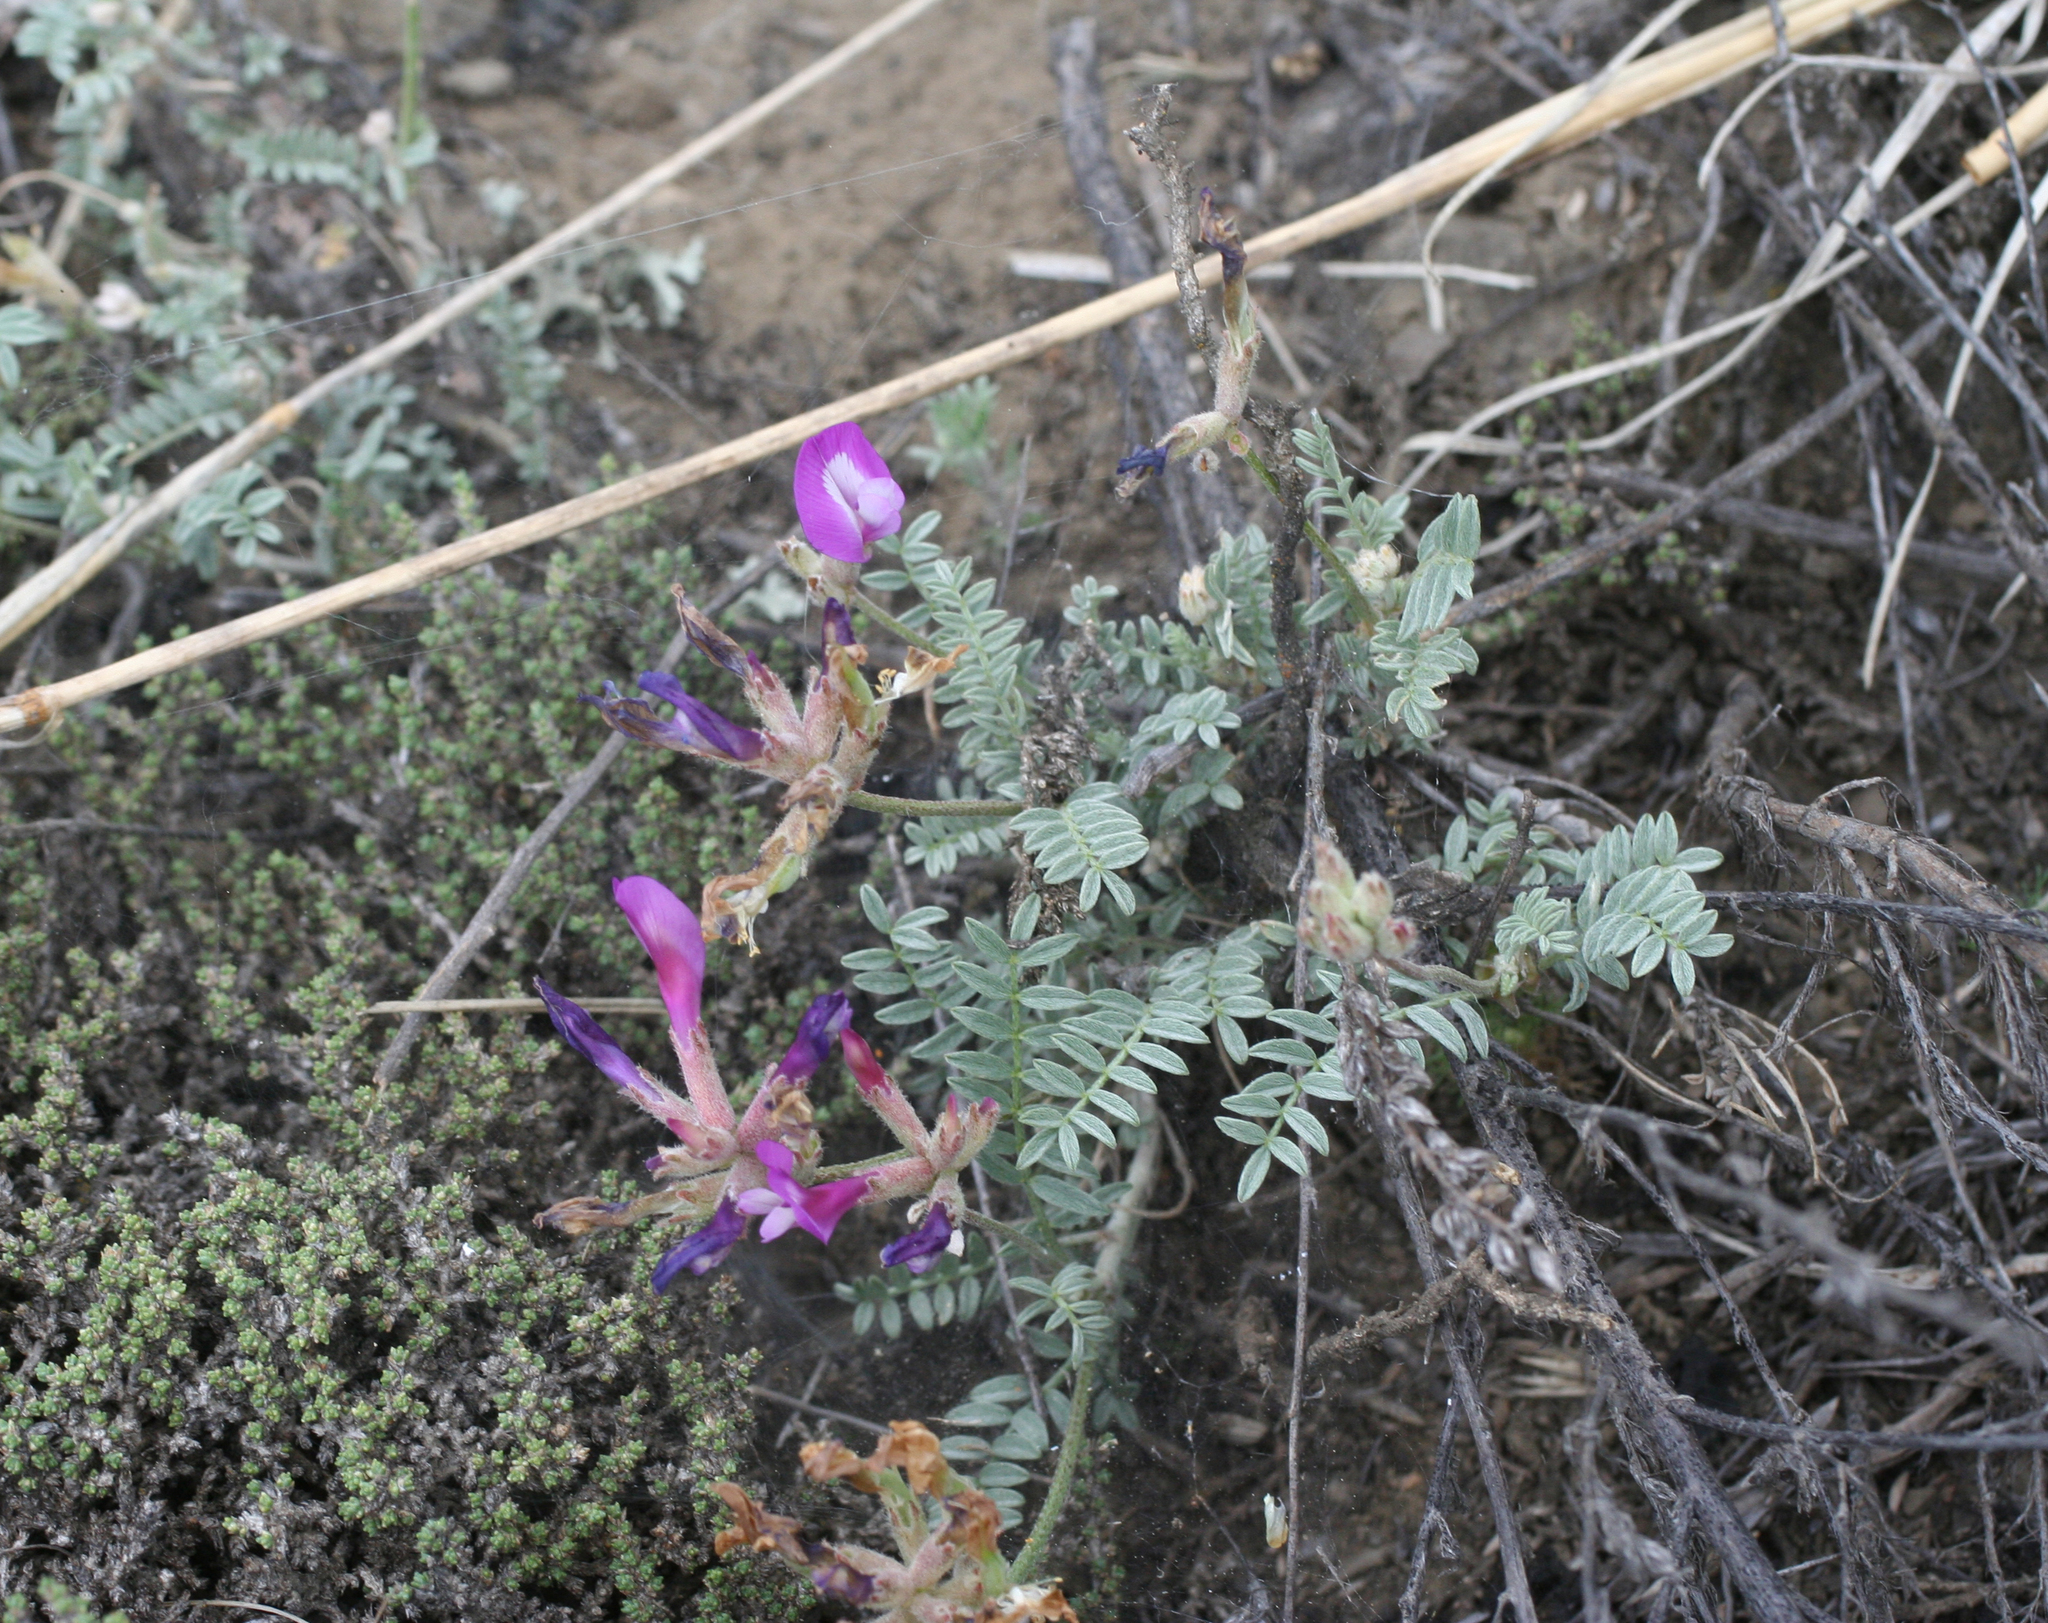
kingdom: Plantae
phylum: Tracheophyta
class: Magnoliopsida
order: Fabales
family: Fabaceae
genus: Astragalus
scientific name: Astragalus stenoceras
